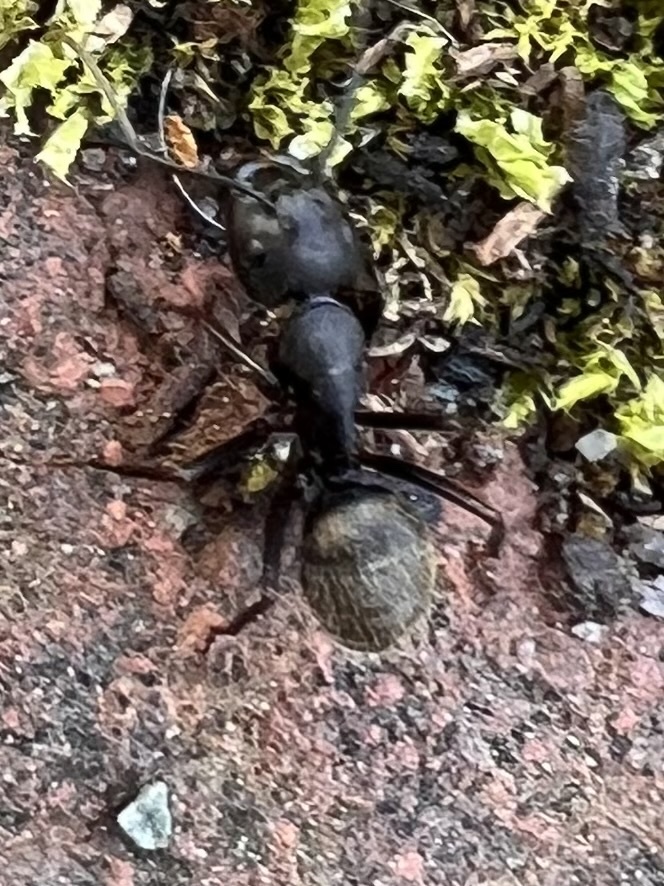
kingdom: Animalia
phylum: Arthropoda
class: Insecta
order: Hymenoptera
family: Formicidae
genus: Camponotus
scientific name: Camponotus pennsylvanicus
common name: Black carpenter ant
